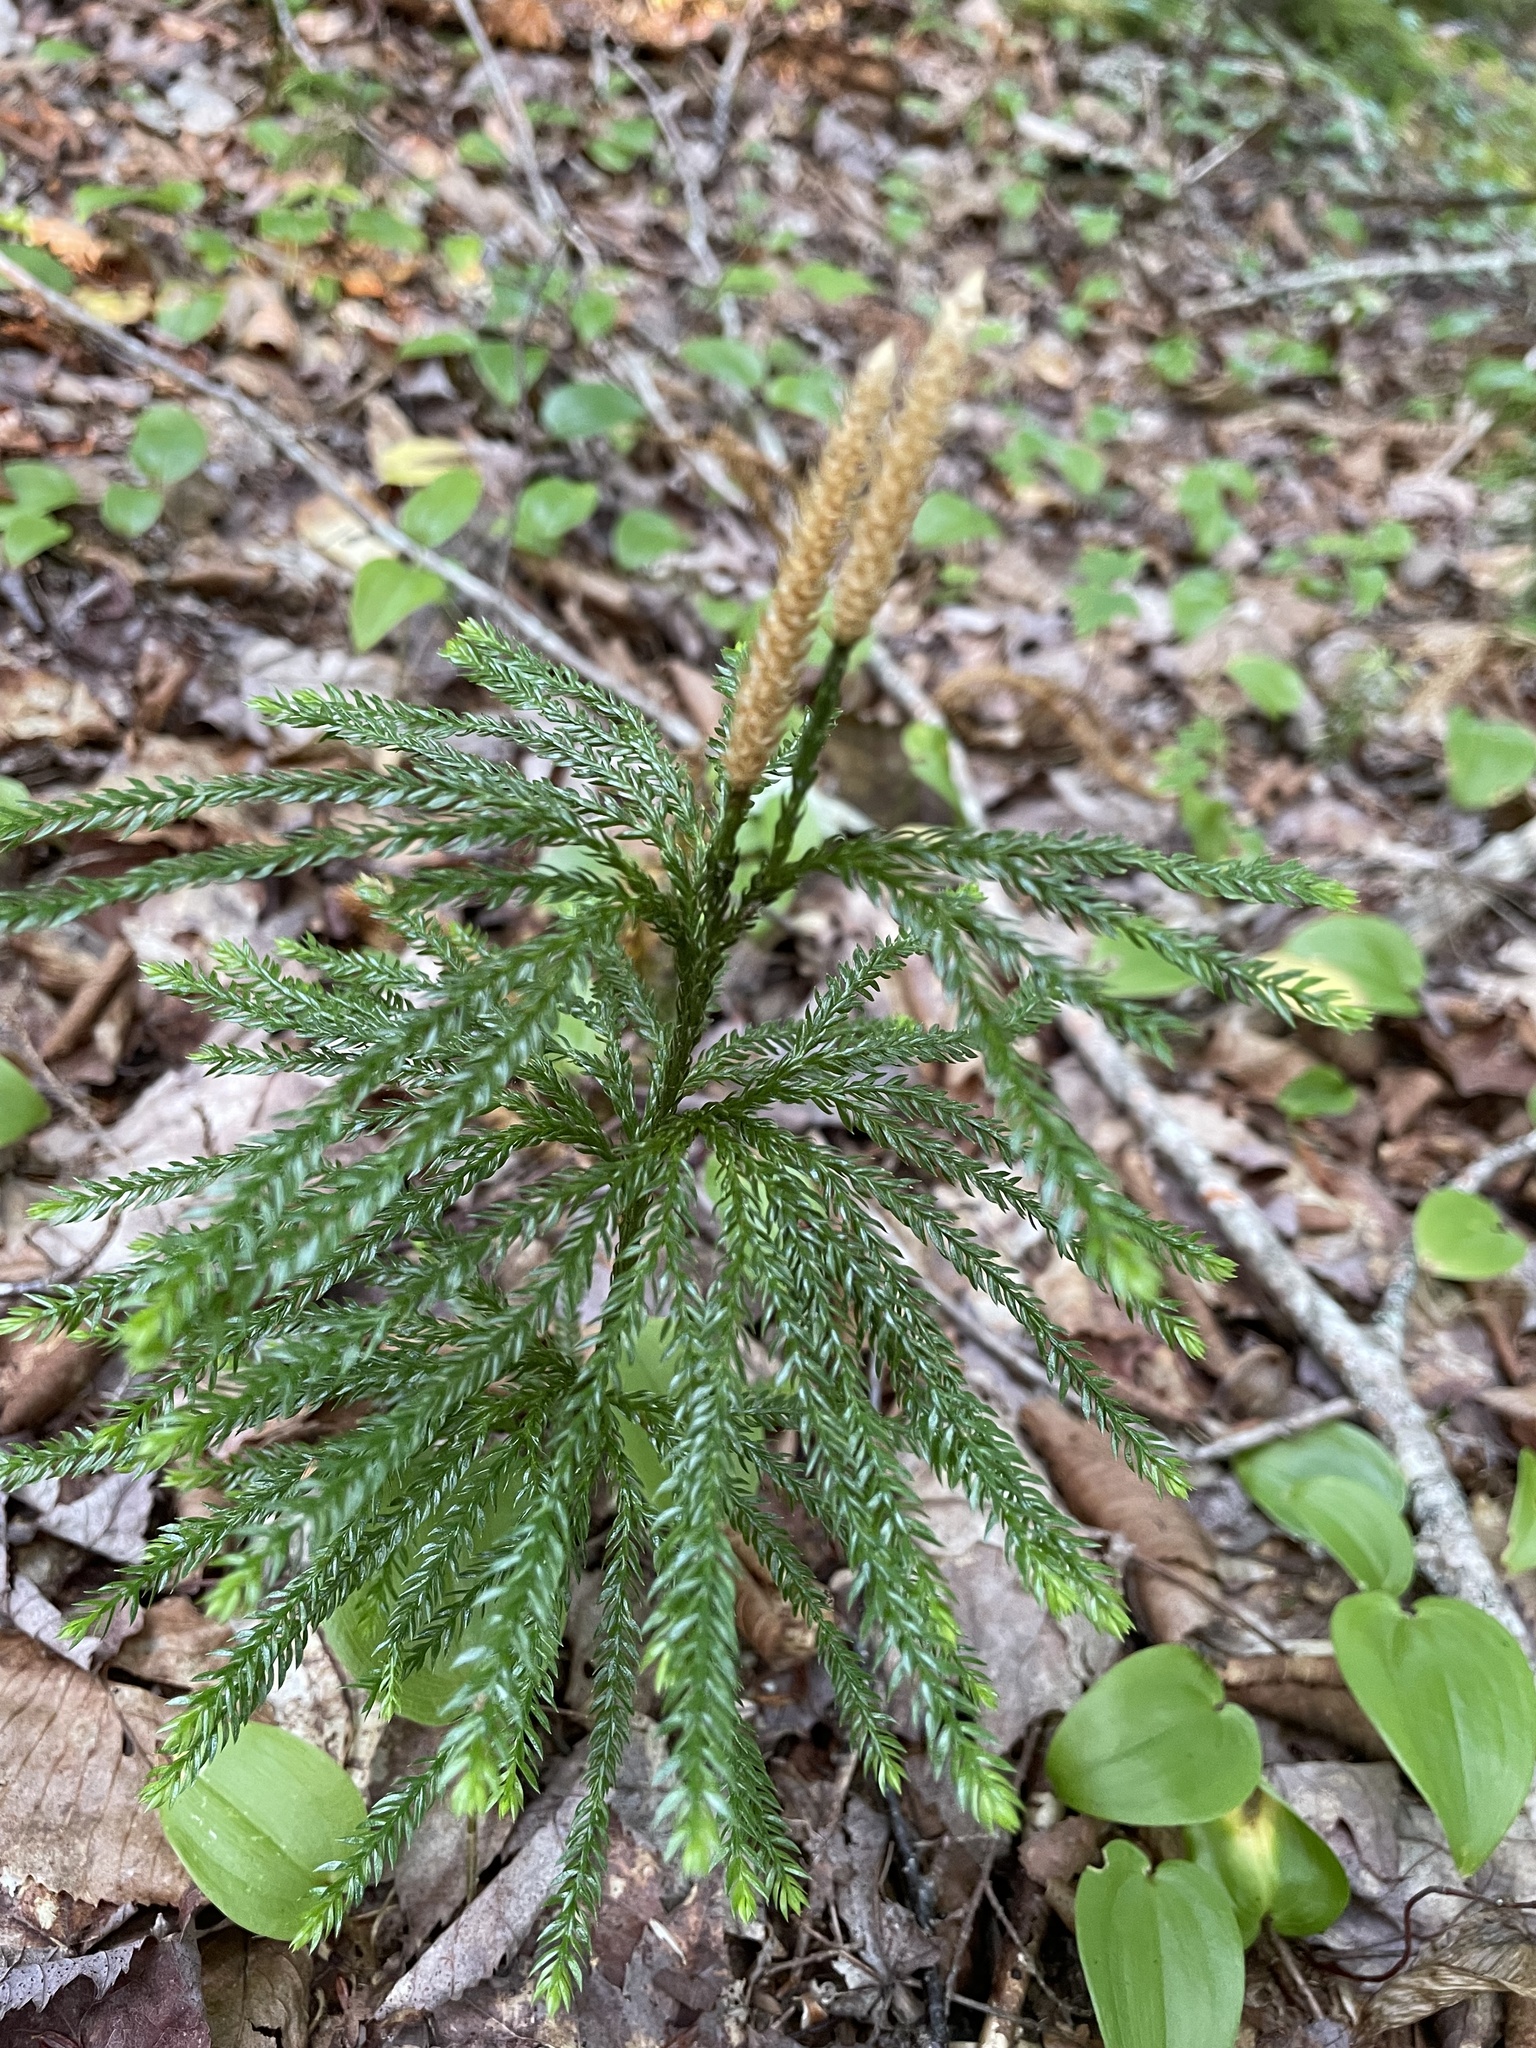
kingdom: Plantae
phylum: Tracheophyta
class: Lycopodiopsida
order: Lycopodiales
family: Lycopodiaceae
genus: Dendrolycopodium
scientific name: Dendrolycopodium obscurum
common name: Common ground-pine
